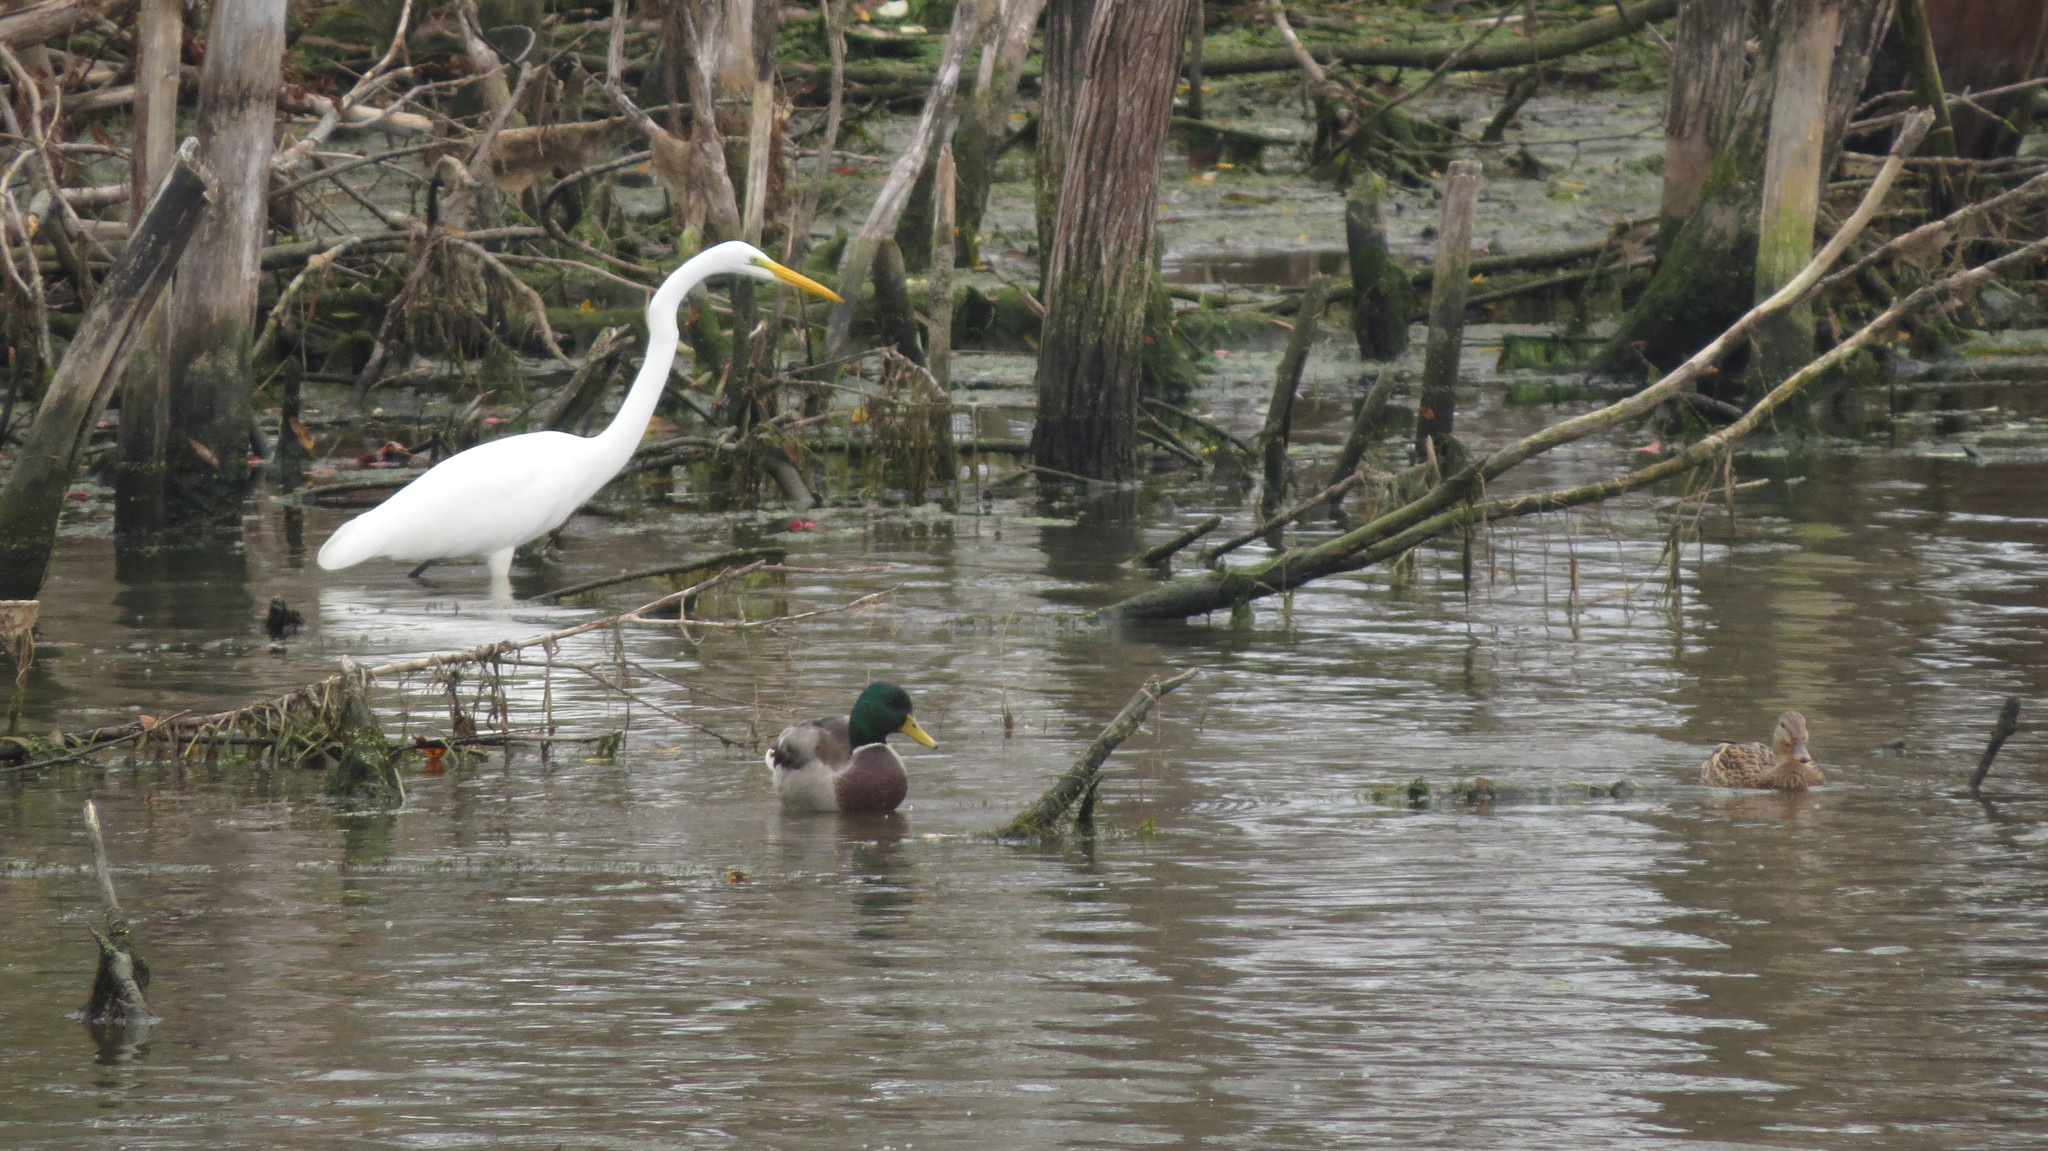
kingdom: Animalia
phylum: Chordata
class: Aves
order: Pelecaniformes
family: Ardeidae
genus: Ardea
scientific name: Ardea alba
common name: Great egret
